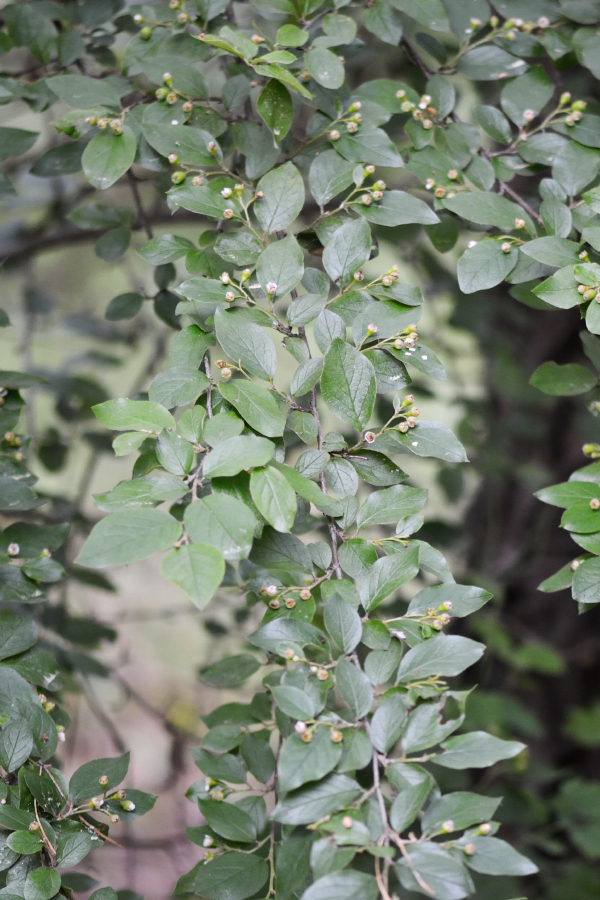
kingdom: Plantae
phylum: Tracheophyta
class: Magnoliopsida
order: Rosales
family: Rosaceae
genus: Cotoneaster
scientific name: Cotoneaster acutifolius
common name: Peking cotoneaster
